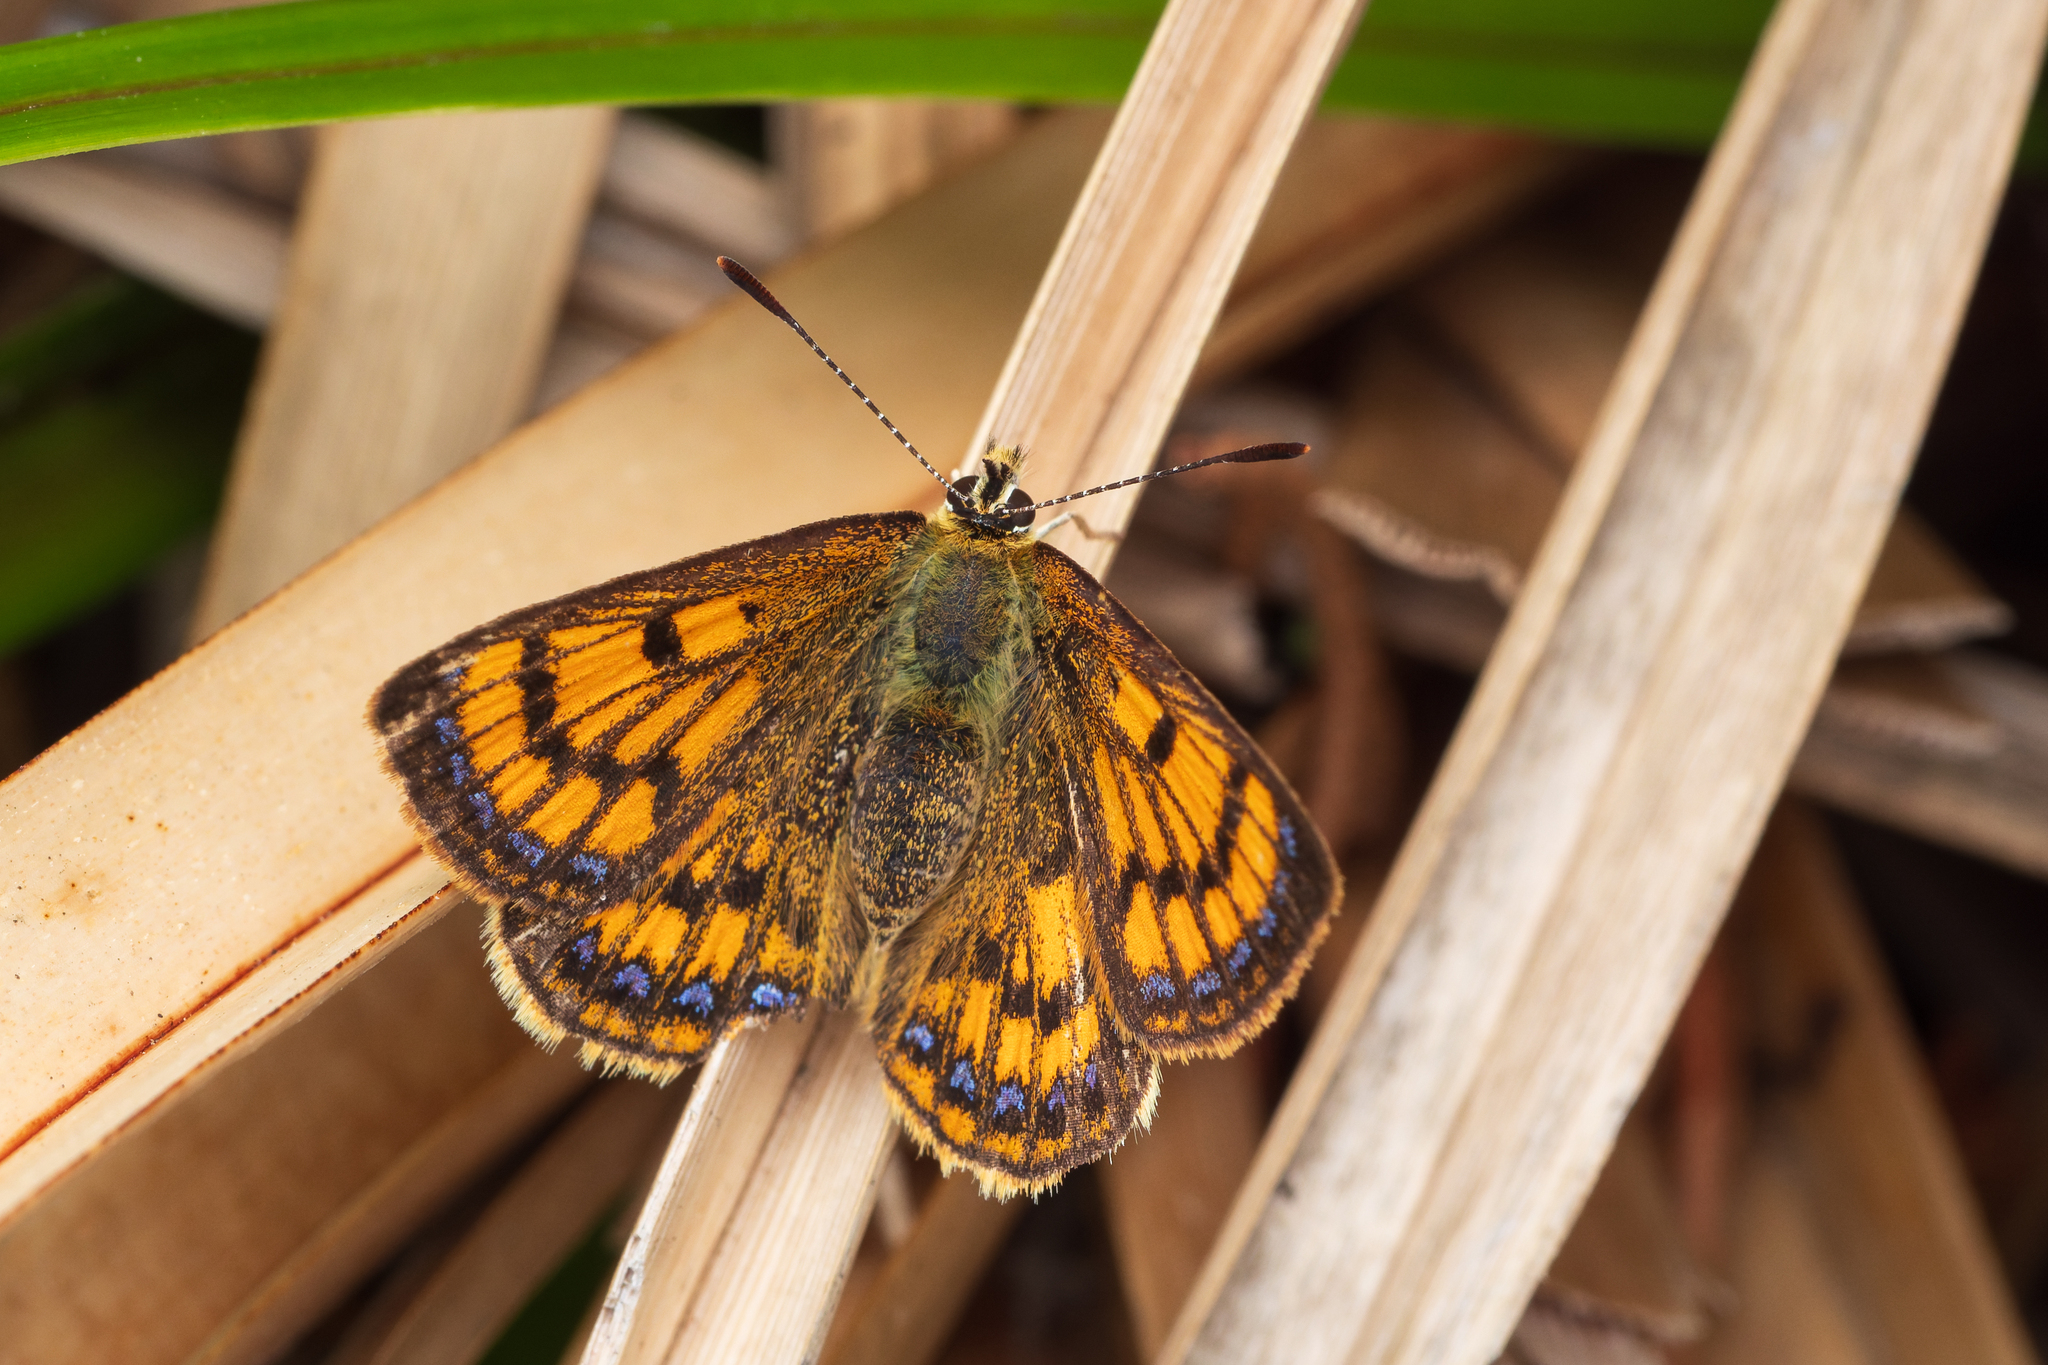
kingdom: Animalia
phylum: Arthropoda
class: Insecta
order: Lepidoptera
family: Lycaenidae
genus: Lycaena
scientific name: Lycaena salustius
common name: North island coastal copper
